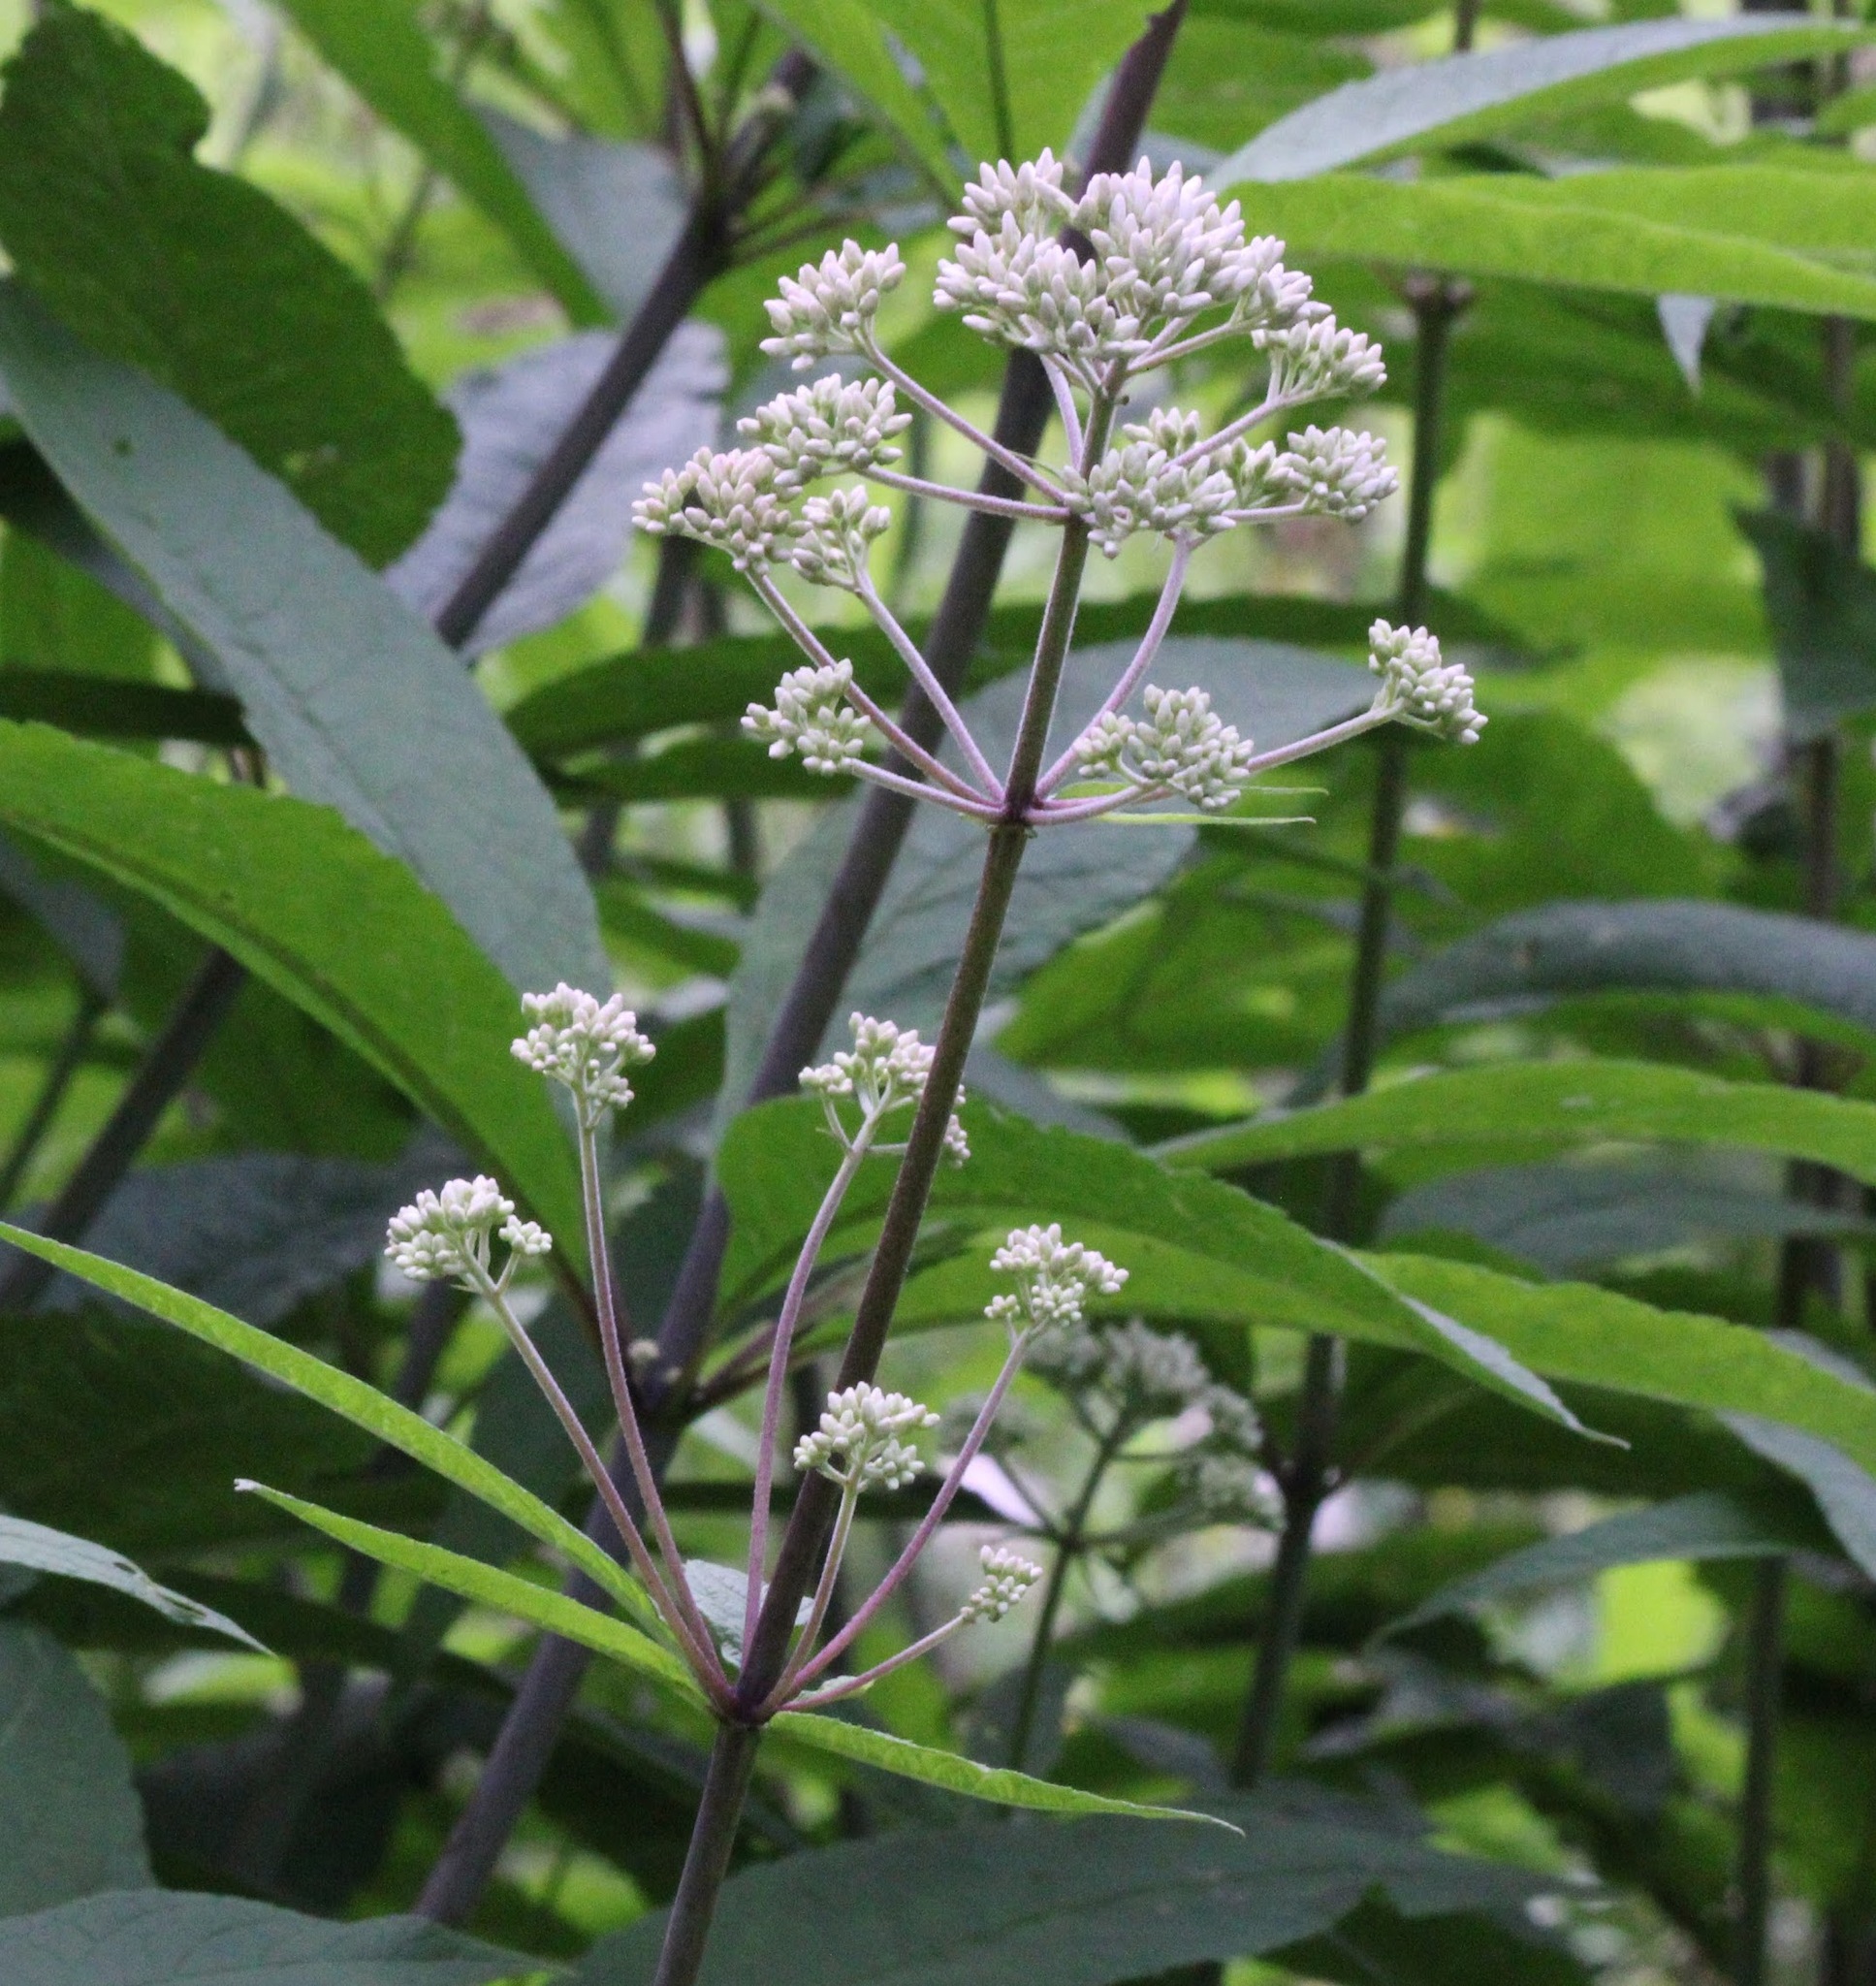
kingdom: Plantae
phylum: Tracheophyta
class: Magnoliopsida
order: Asterales
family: Asteraceae
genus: Eutrochium
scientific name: Eutrochium fistulosum
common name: Trumpetweed
